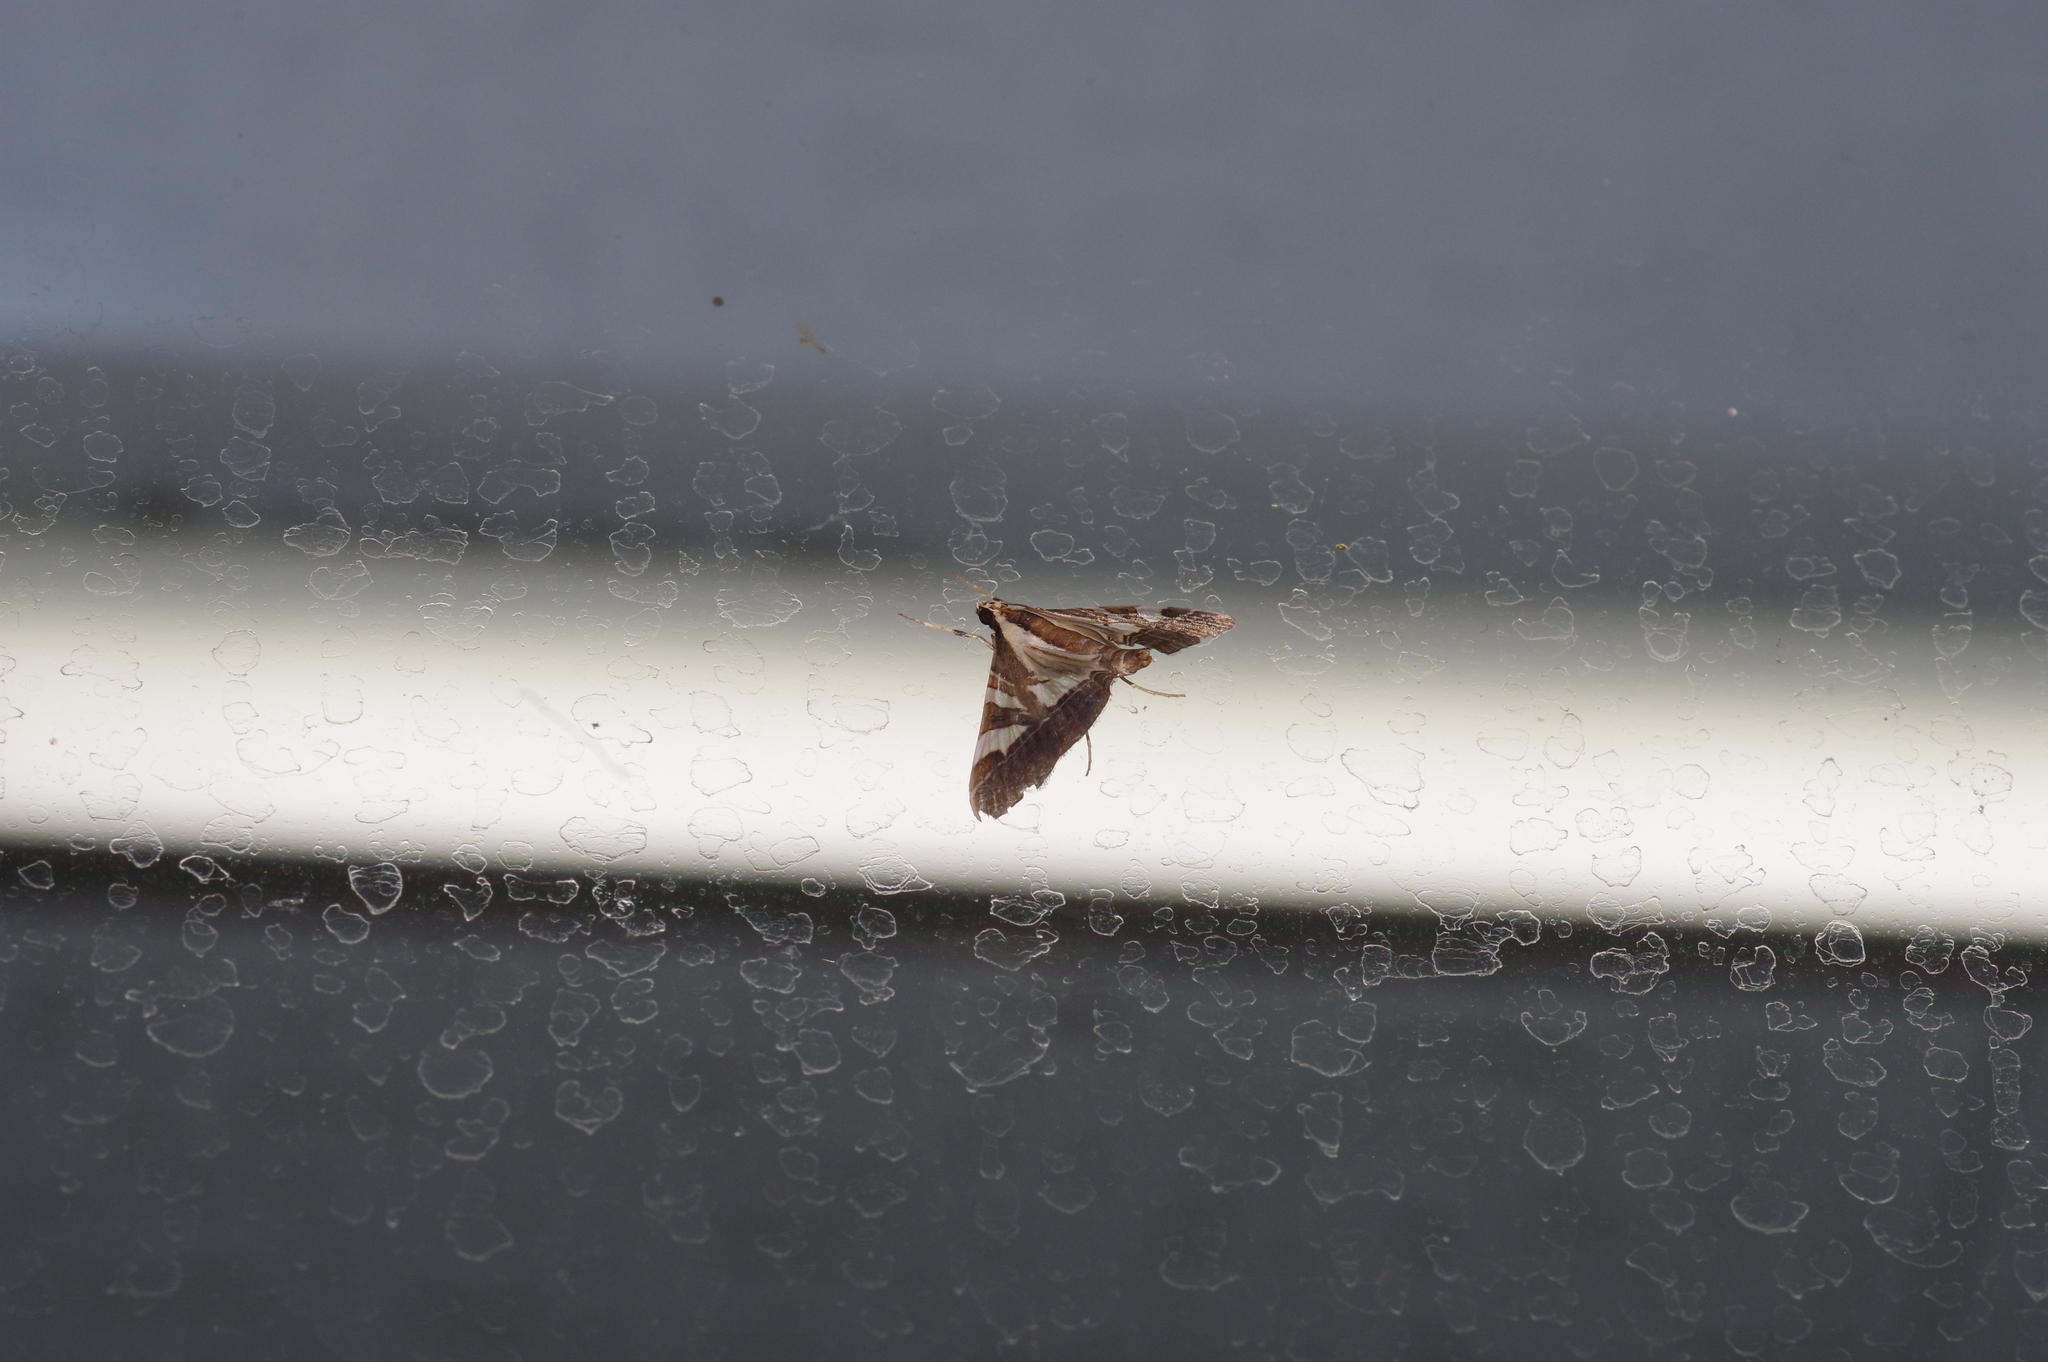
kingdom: Animalia
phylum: Arthropoda
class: Insecta
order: Lepidoptera
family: Crambidae
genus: Agrioglypta
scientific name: Agrioglypta itysalis
